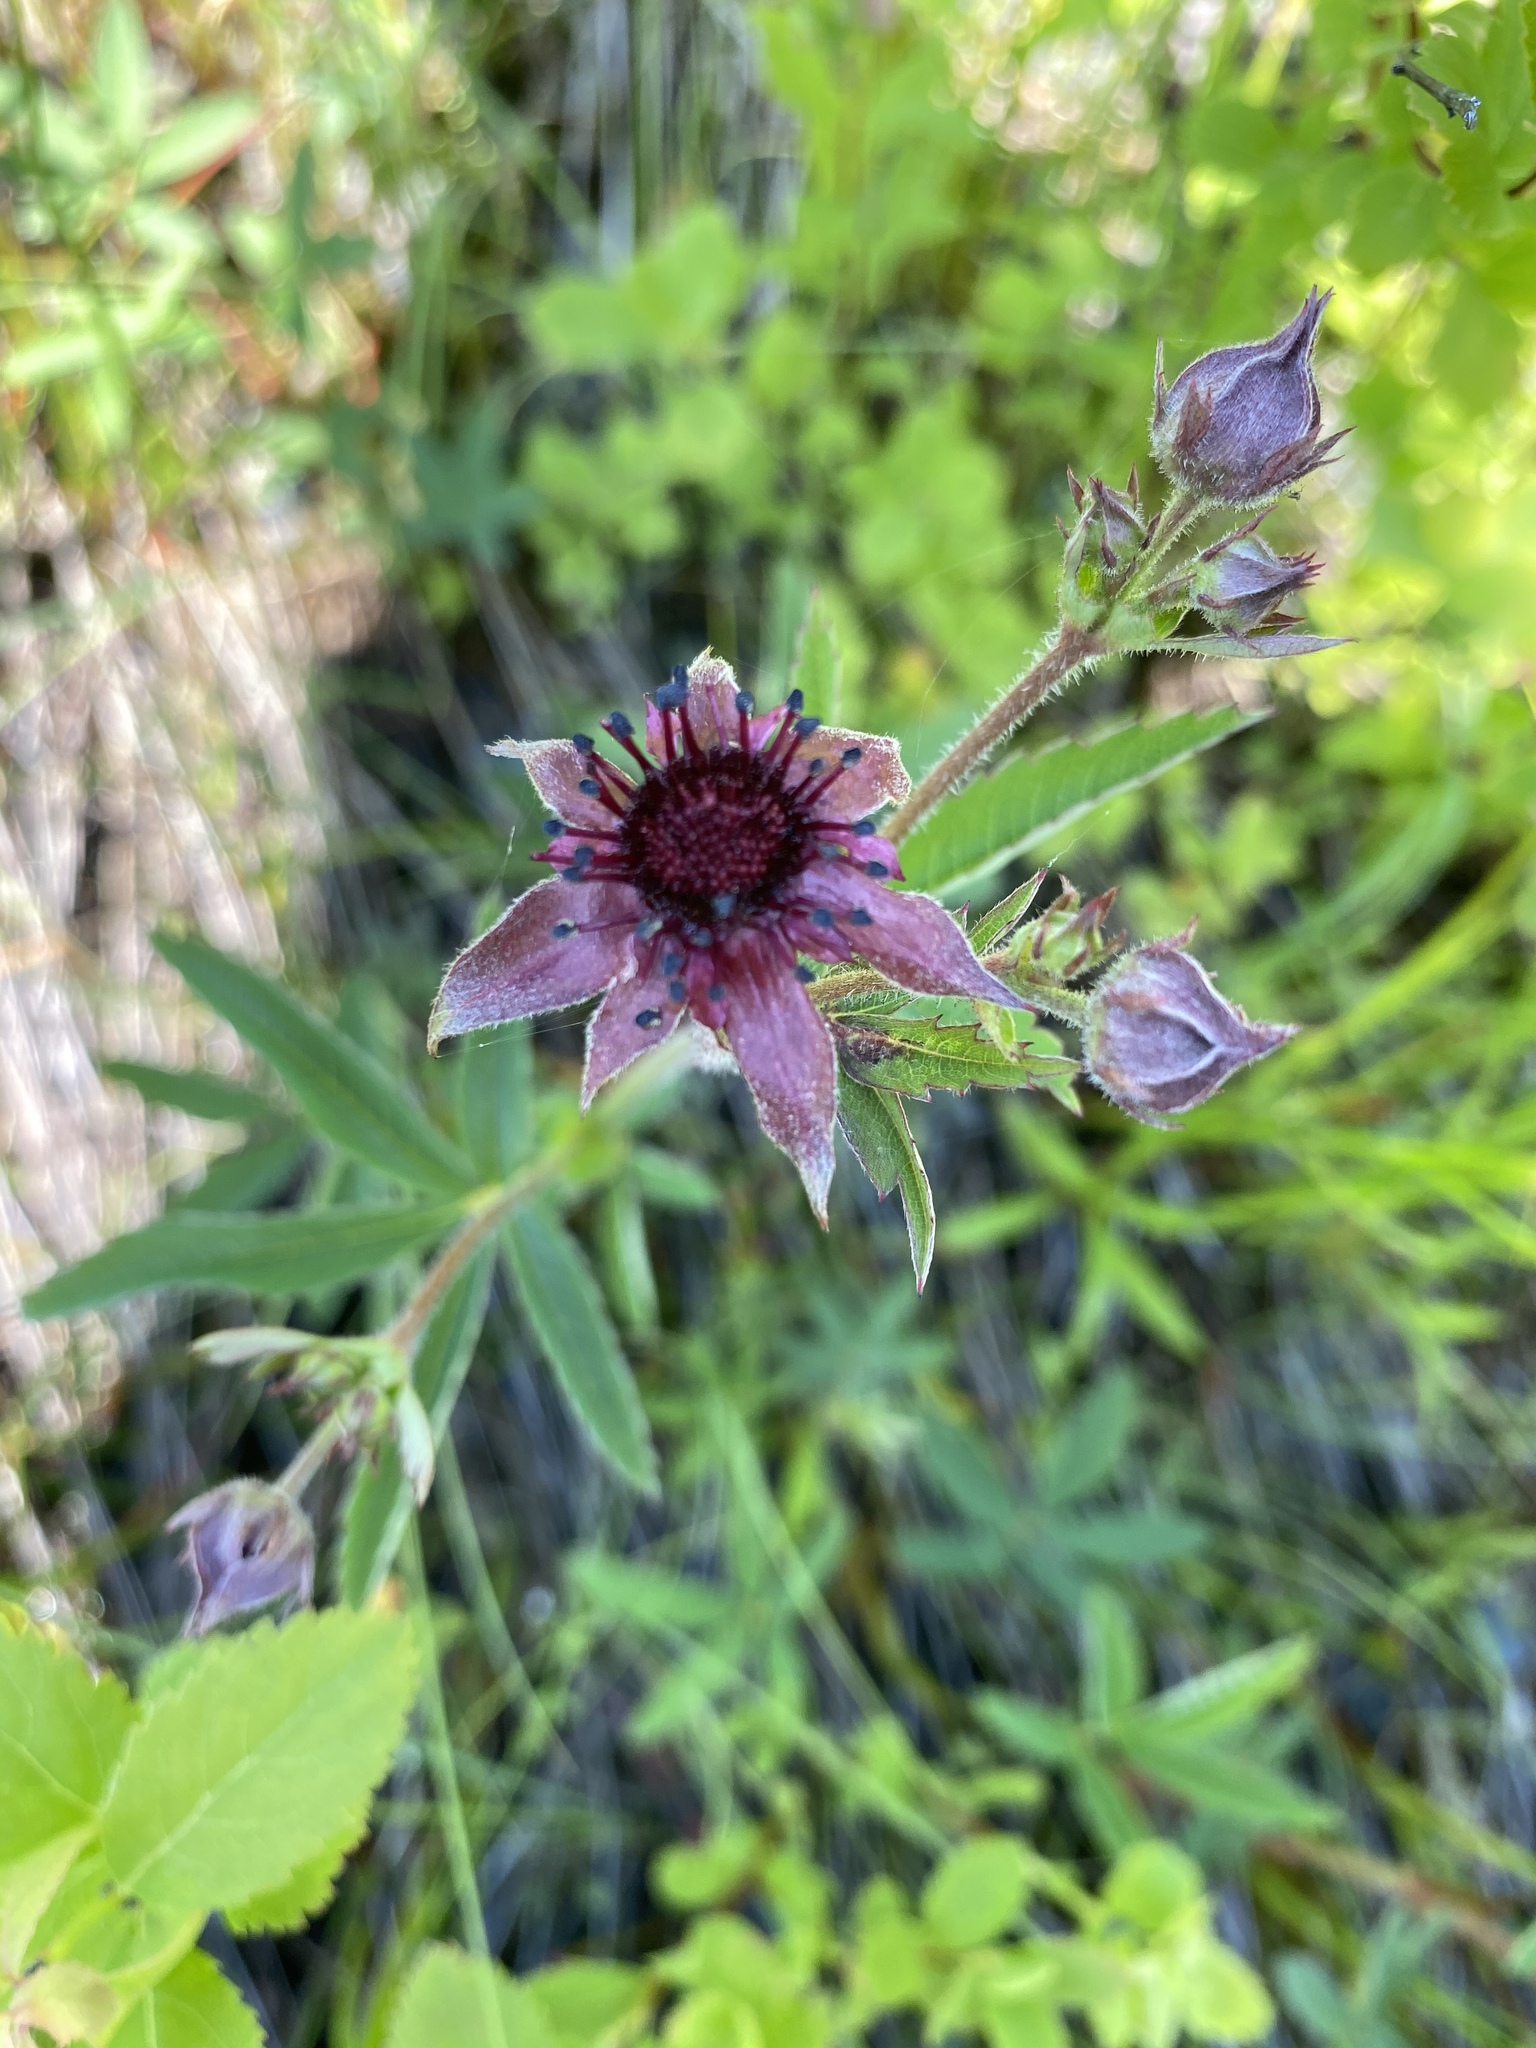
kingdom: Plantae
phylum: Tracheophyta
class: Magnoliopsida
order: Rosales
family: Rosaceae
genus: Comarum
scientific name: Comarum palustre
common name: Marsh cinquefoil
